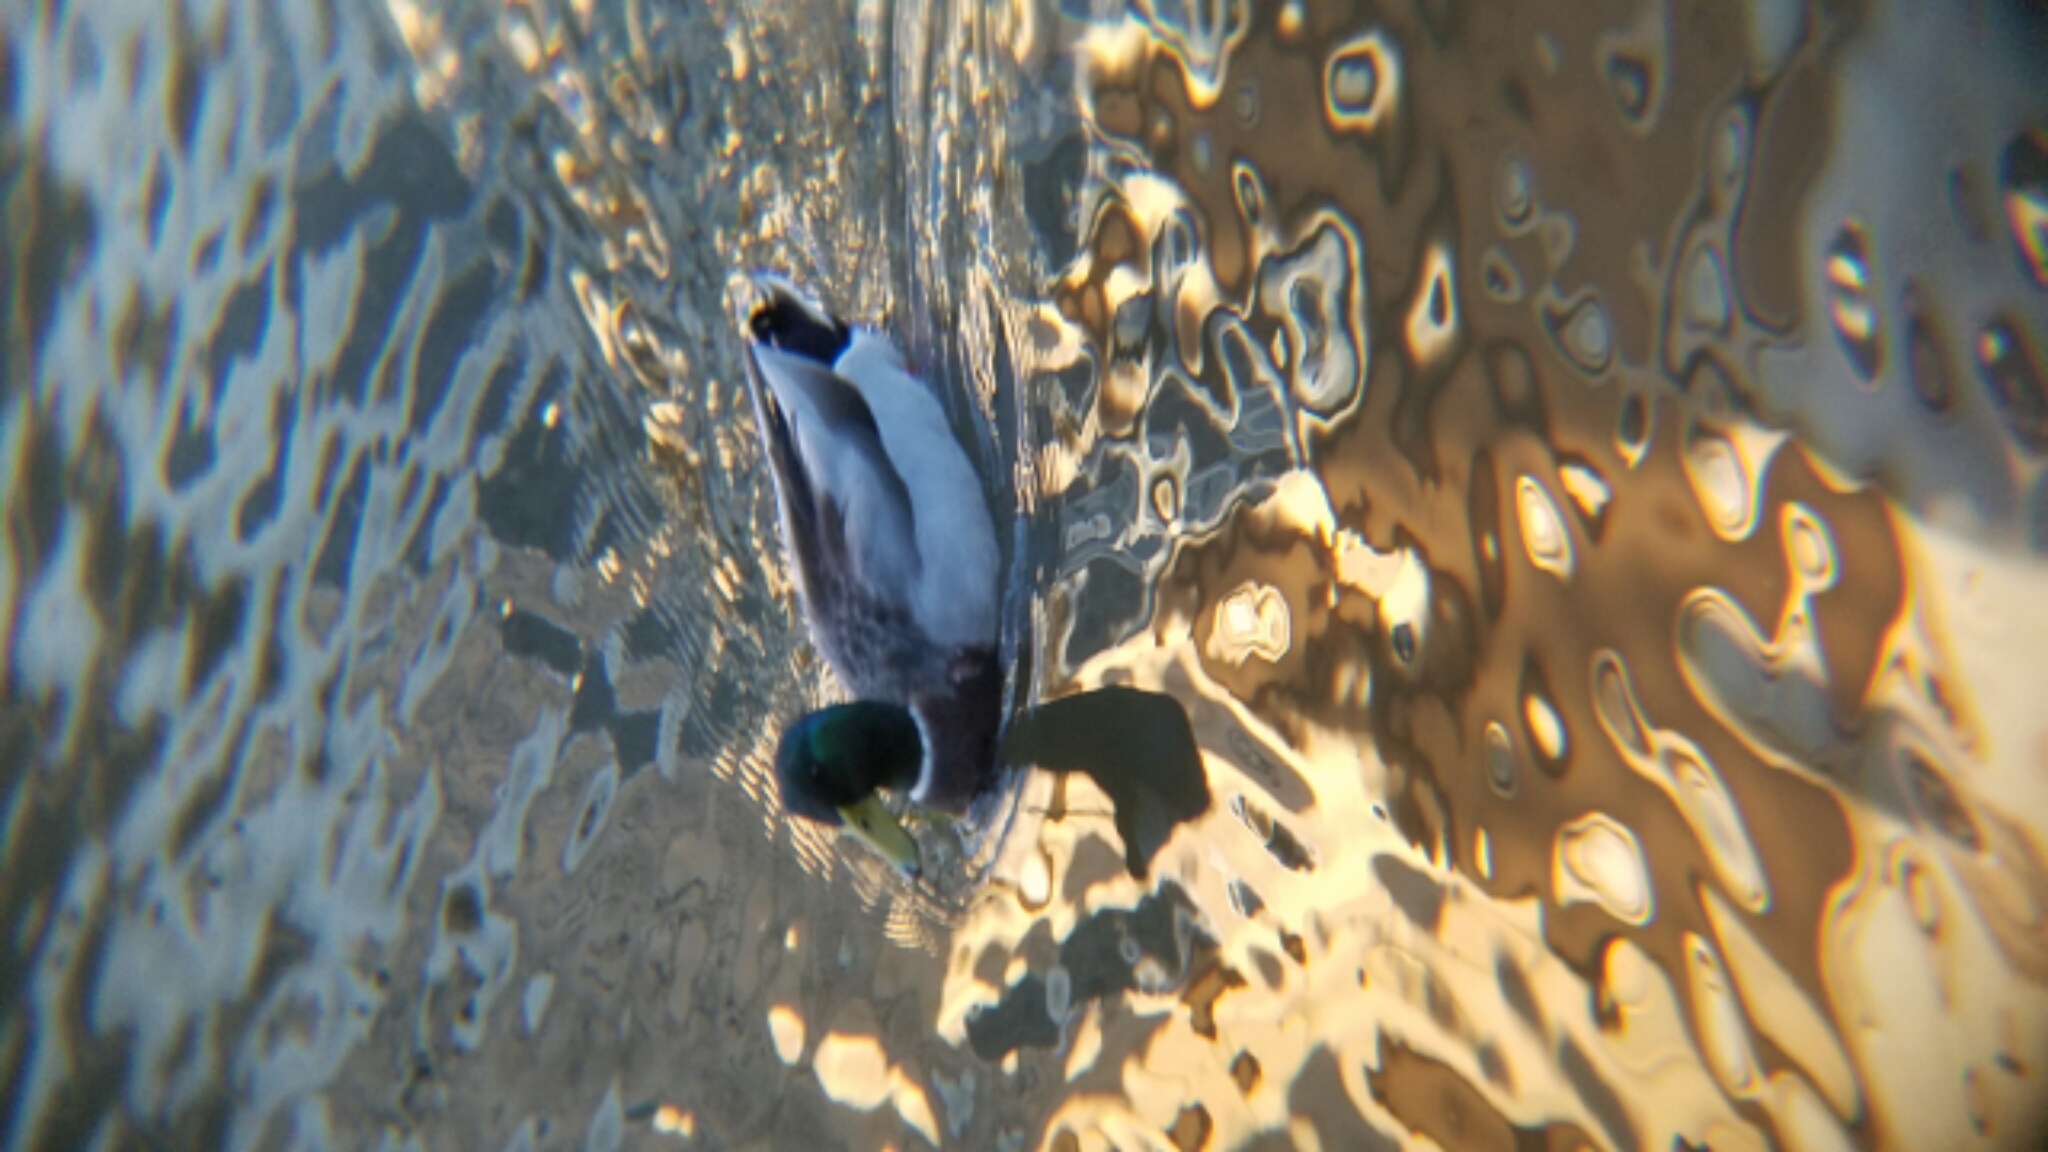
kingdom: Animalia
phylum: Chordata
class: Aves
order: Anseriformes
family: Anatidae
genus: Anas
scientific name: Anas platyrhynchos
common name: Mallard
